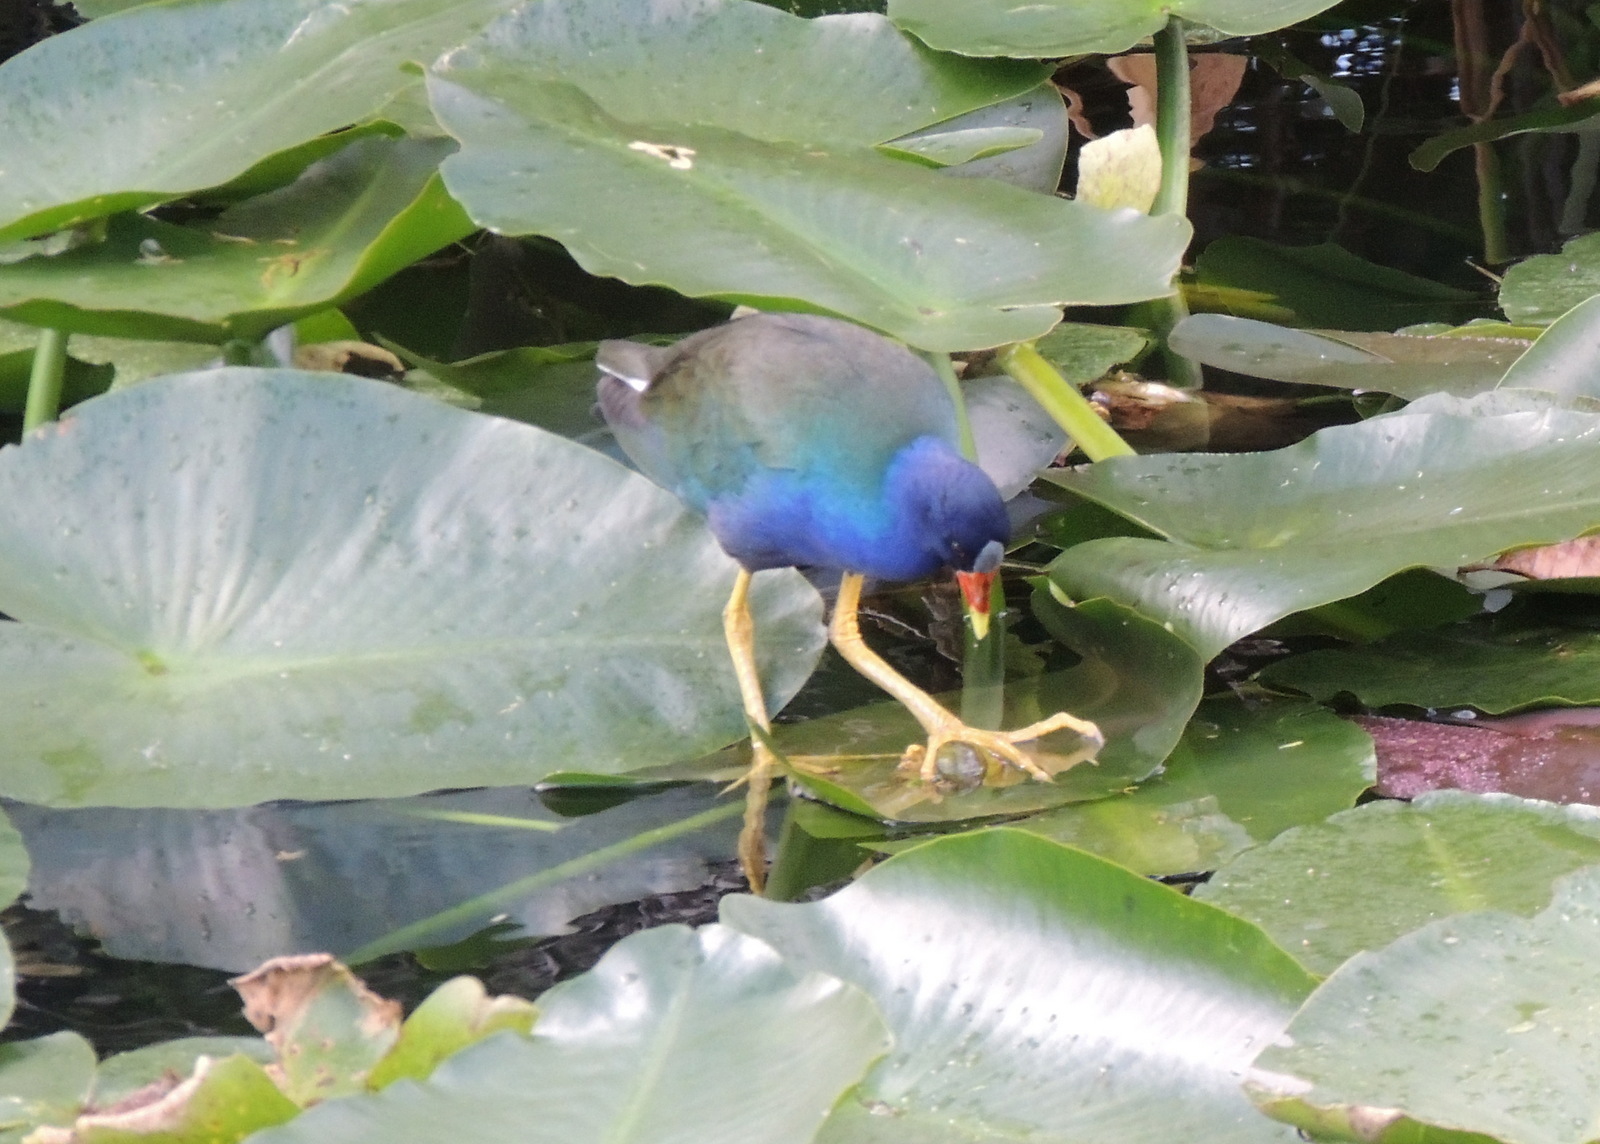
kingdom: Animalia
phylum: Chordata
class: Aves
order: Gruiformes
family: Rallidae
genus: Porphyrio
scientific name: Porphyrio martinica
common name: Purple gallinule
